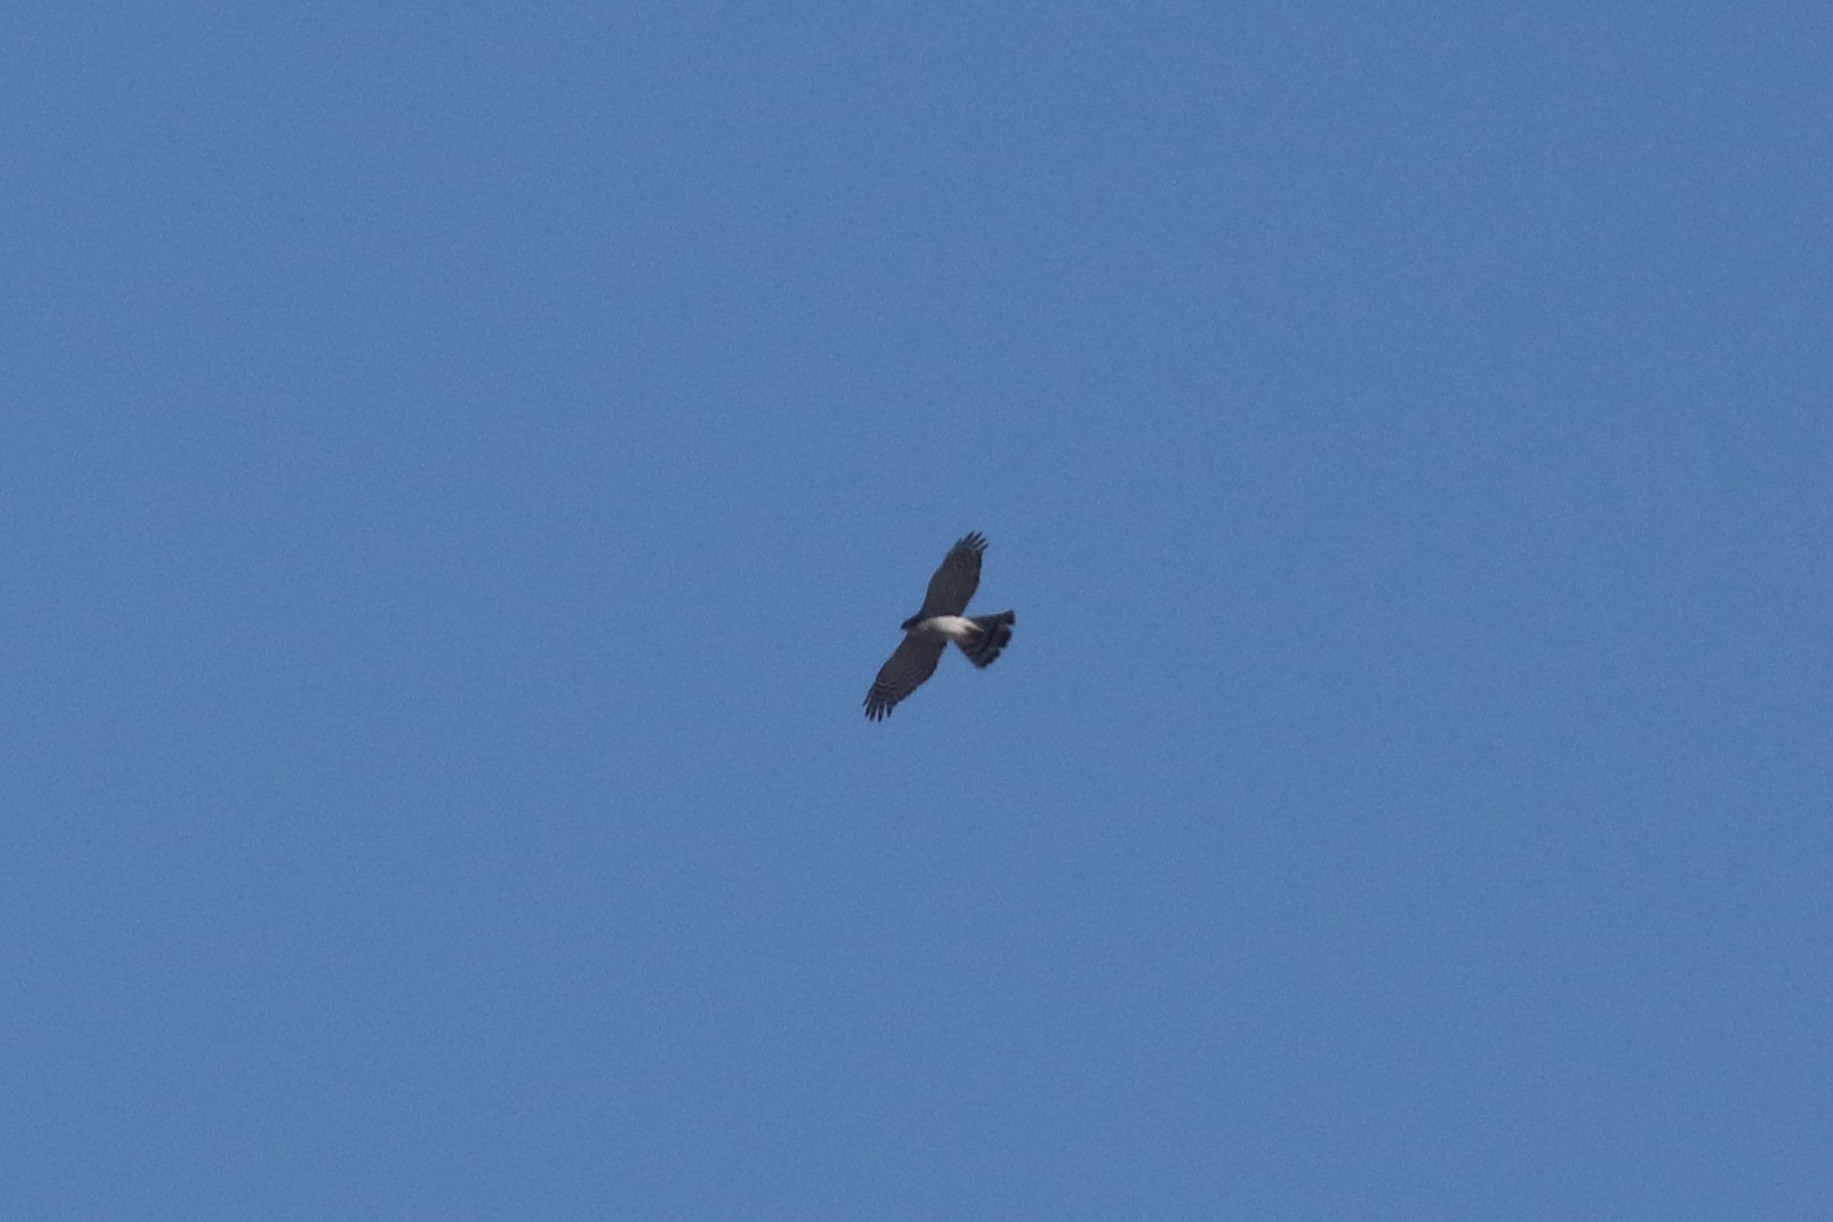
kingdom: Animalia
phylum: Chordata
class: Aves
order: Accipitriformes
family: Accipitridae
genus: Accipiter
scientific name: Accipiter gentilis
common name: Northern goshawk
